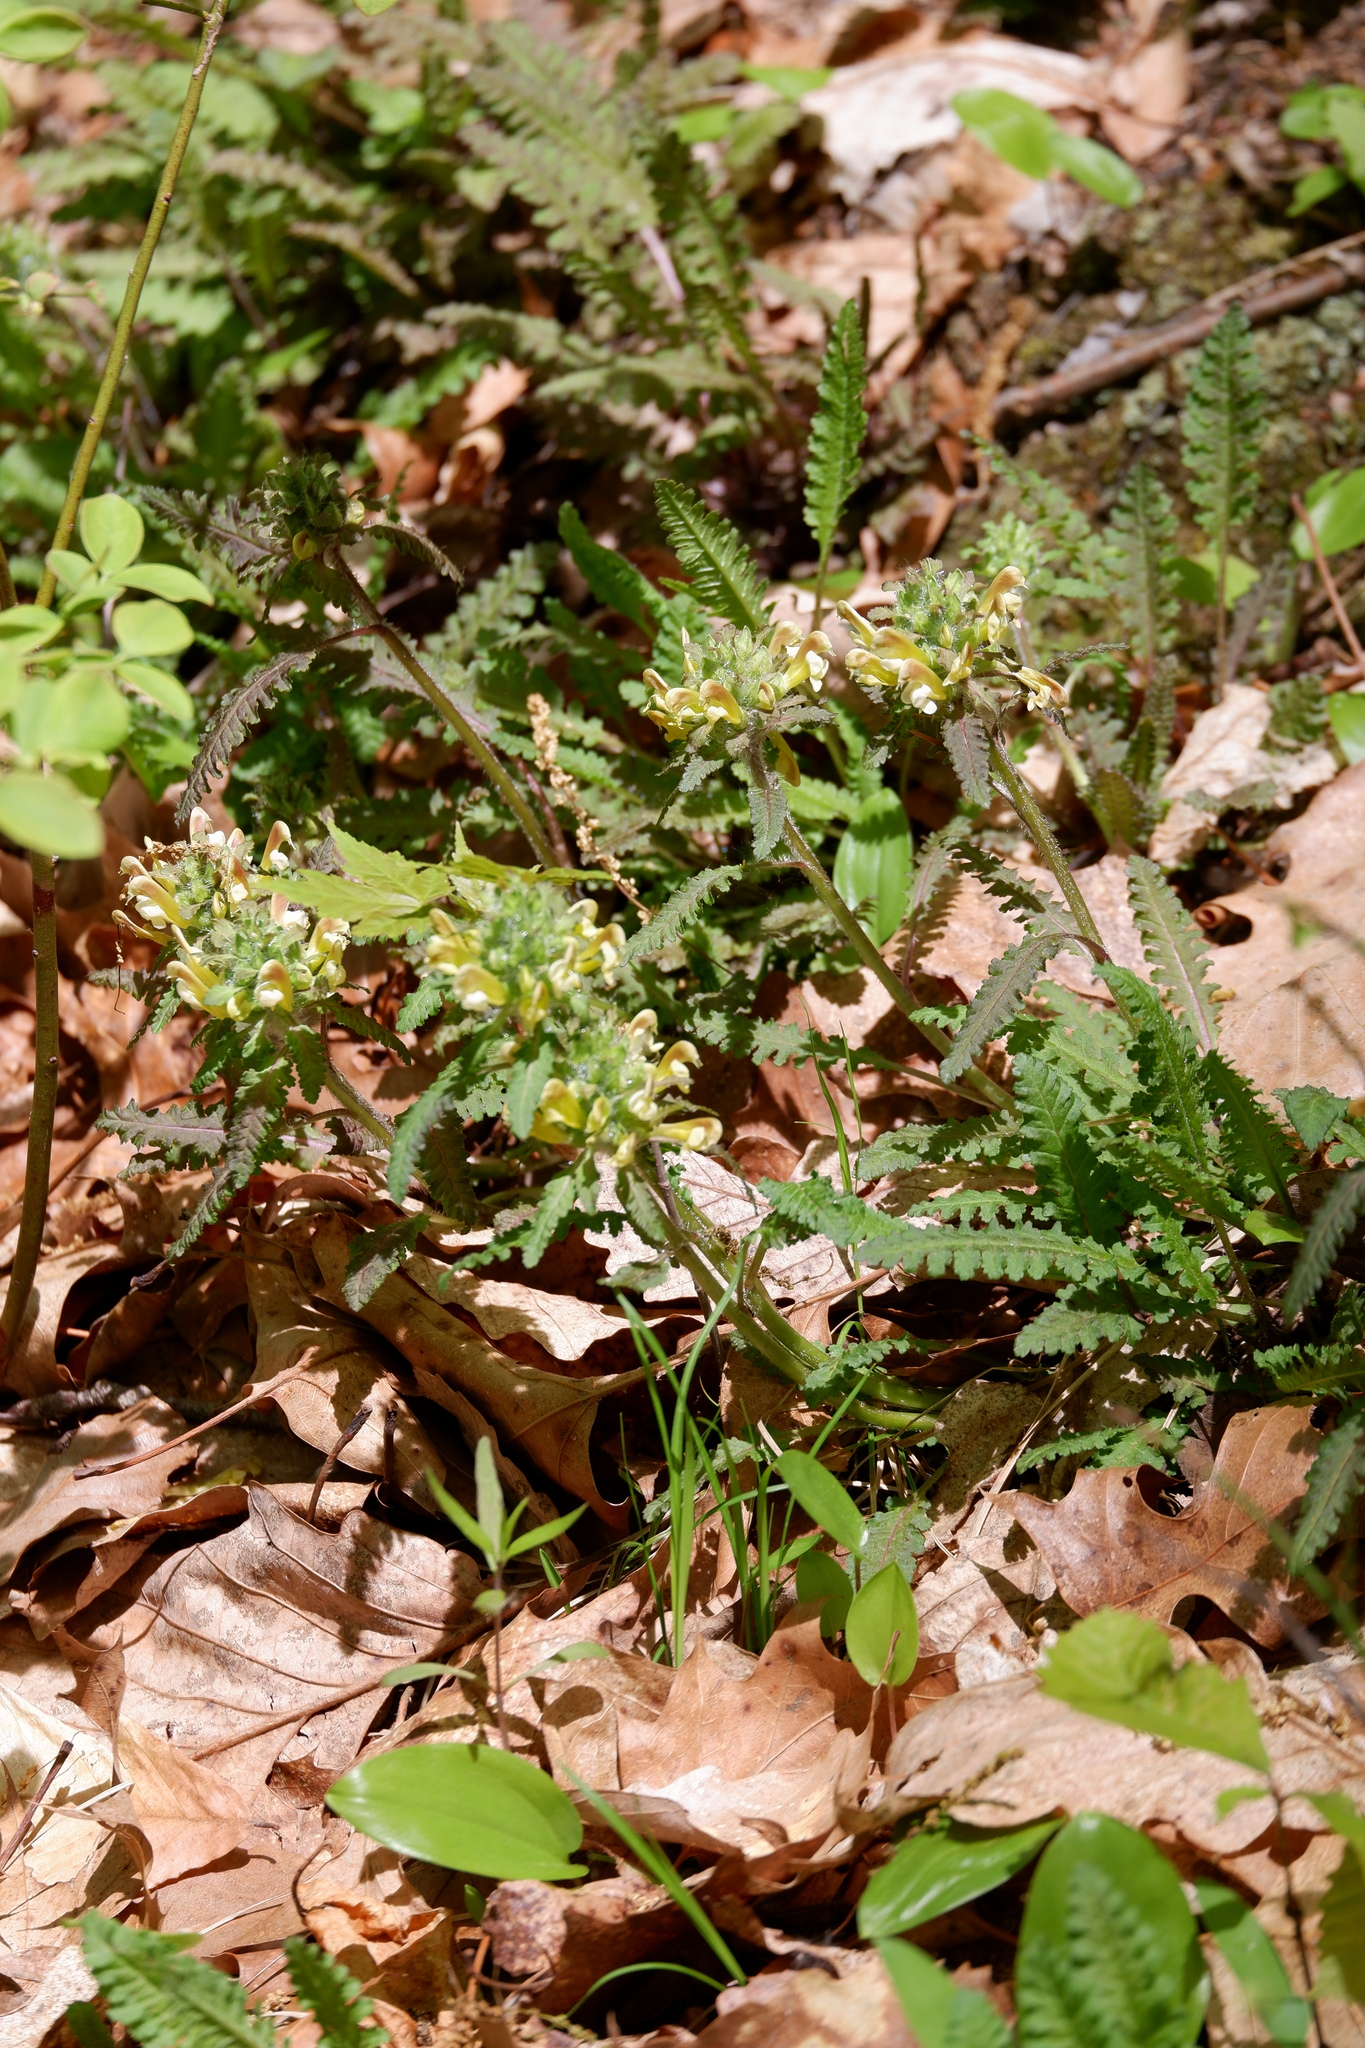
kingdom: Plantae
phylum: Tracheophyta
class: Magnoliopsida
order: Lamiales
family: Orobanchaceae
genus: Pedicularis
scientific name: Pedicularis canadensis
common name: Early lousewort
